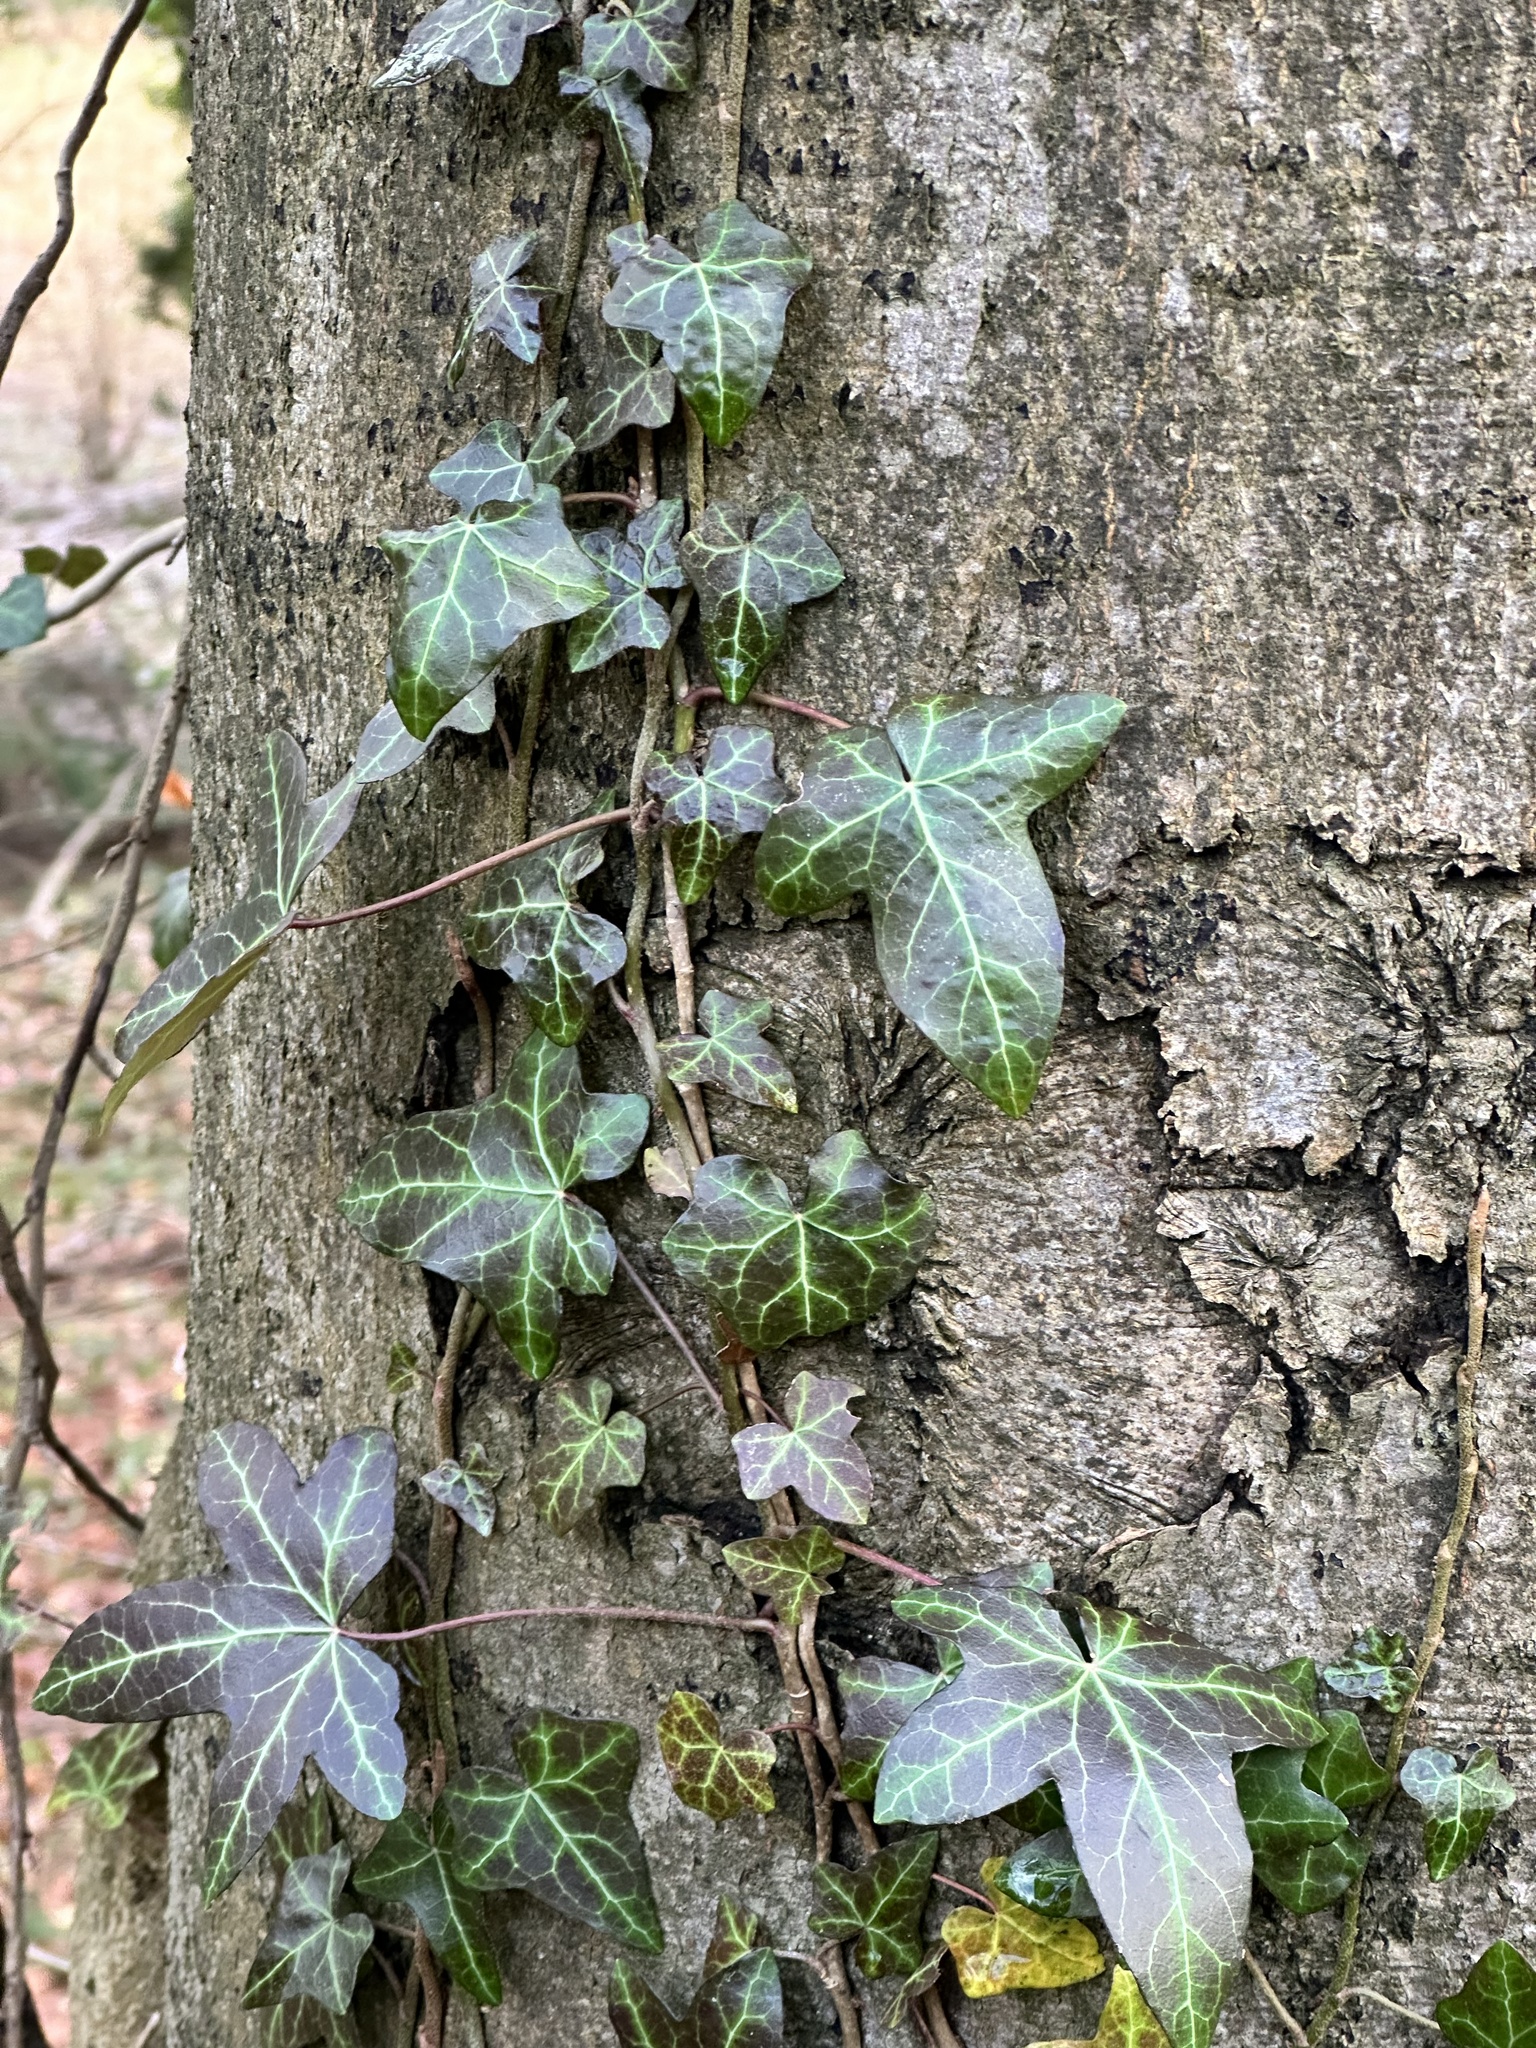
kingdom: Plantae
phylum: Tracheophyta
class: Magnoliopsida
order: Apiales
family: Araliaceae
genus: Hedera
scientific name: Hedera helix
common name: Ivy
